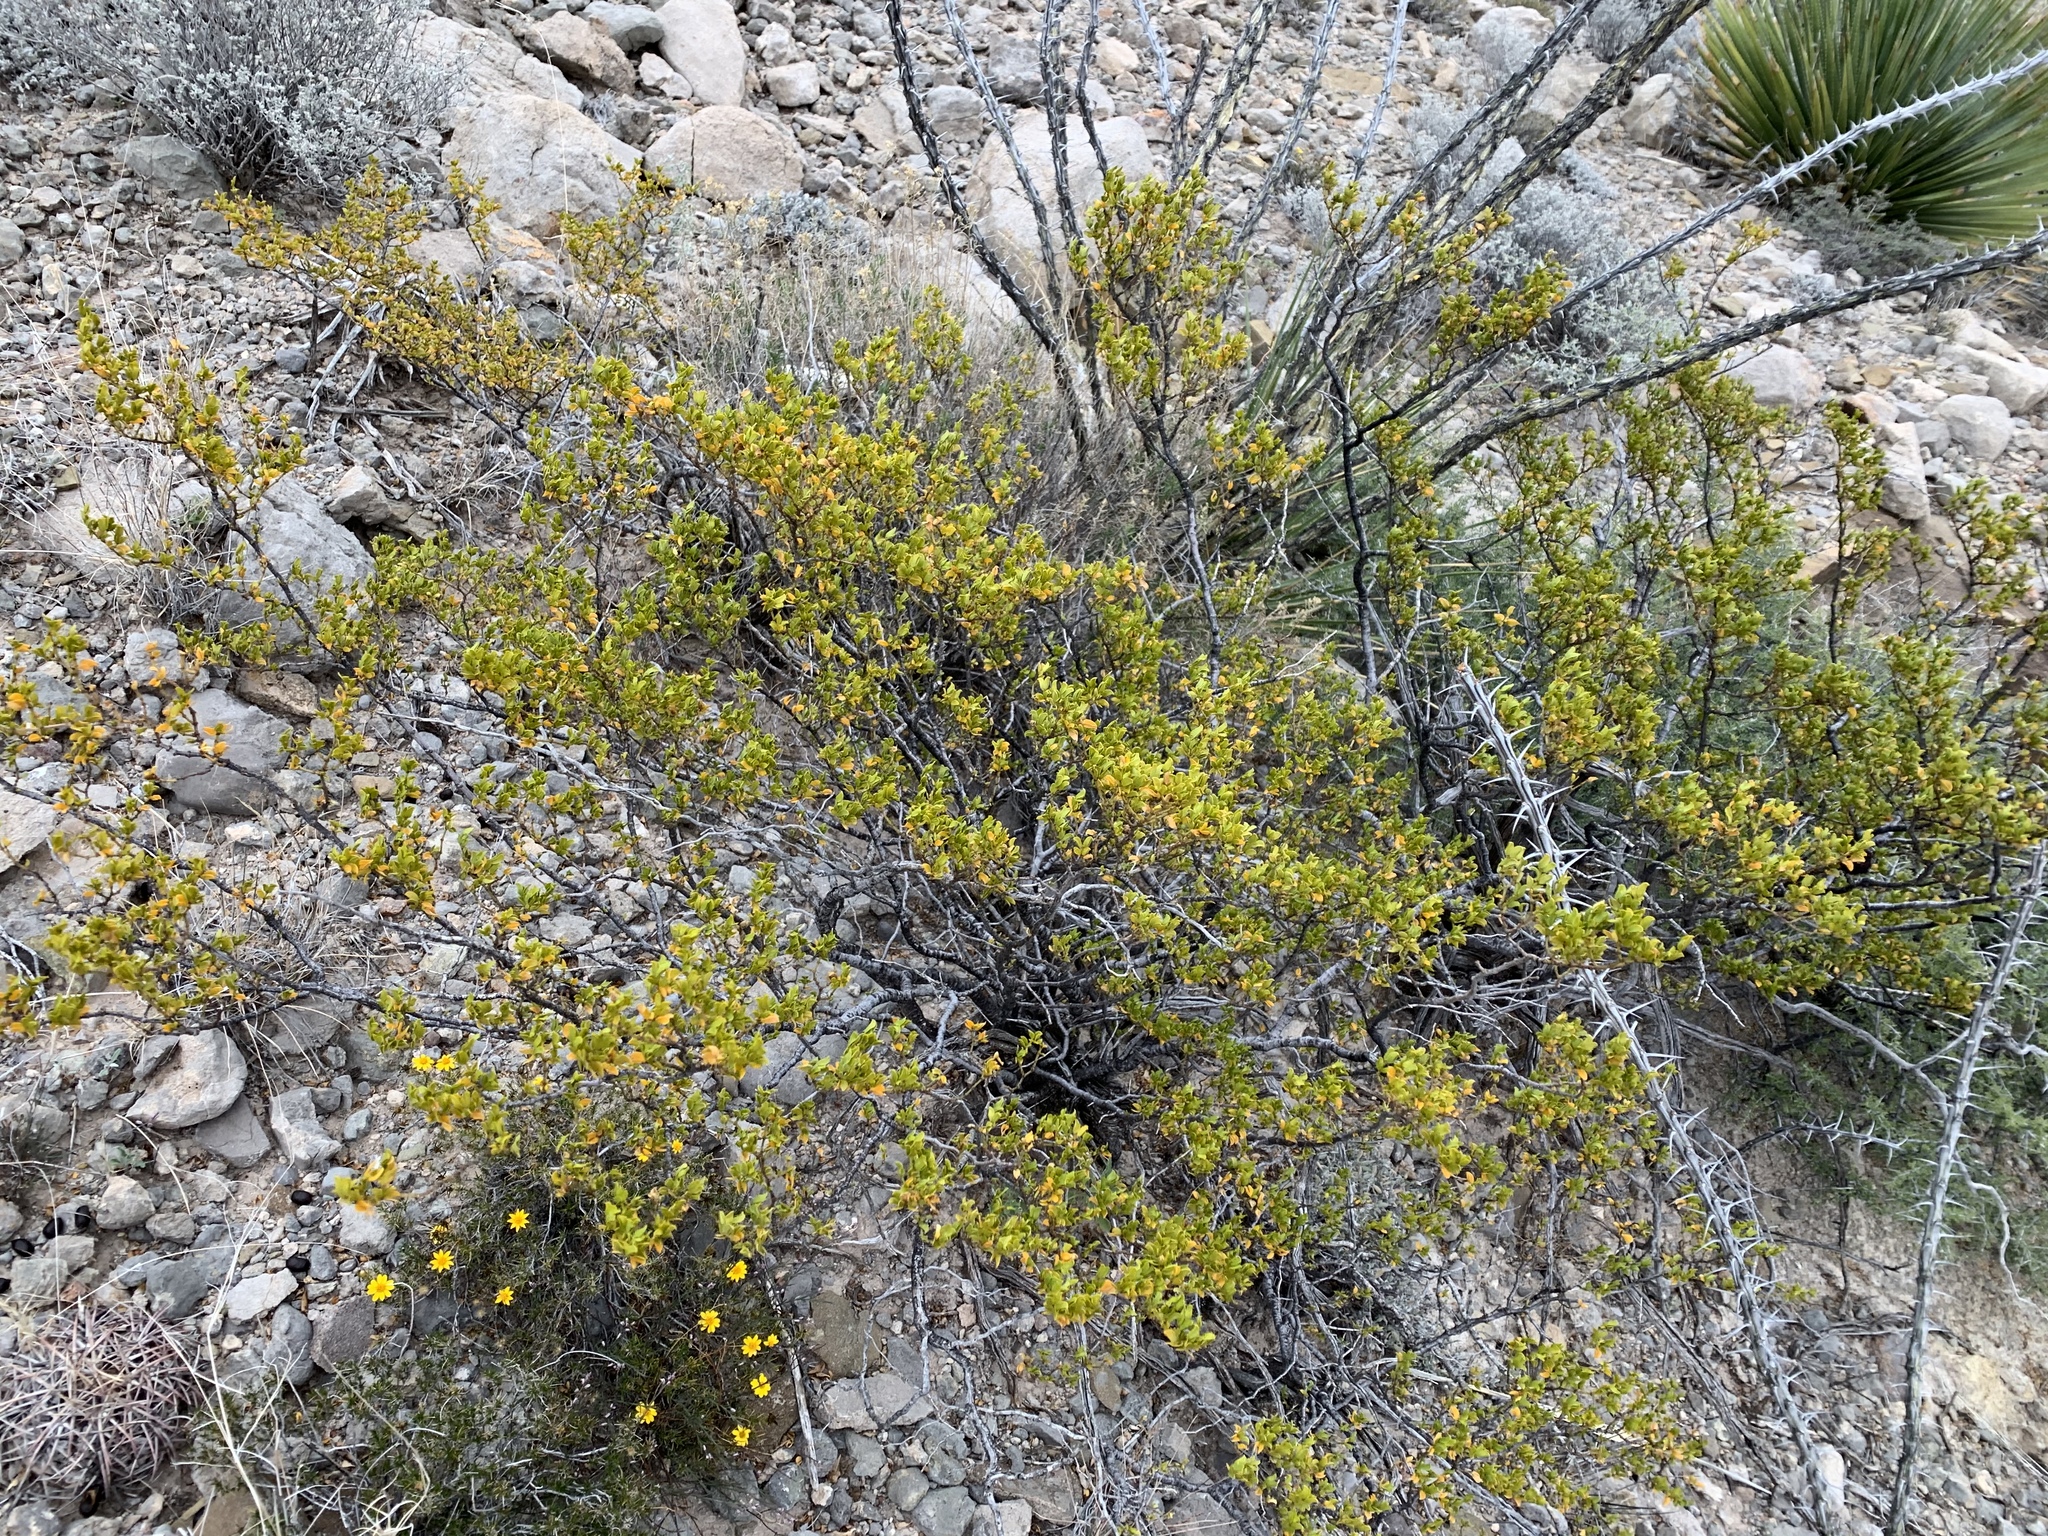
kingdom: Plantae
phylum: Tracheophyta
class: Magnoliopsida
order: Zygophyllales
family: Zygophyllaceae
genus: Larrea
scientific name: Larrea tridentata
